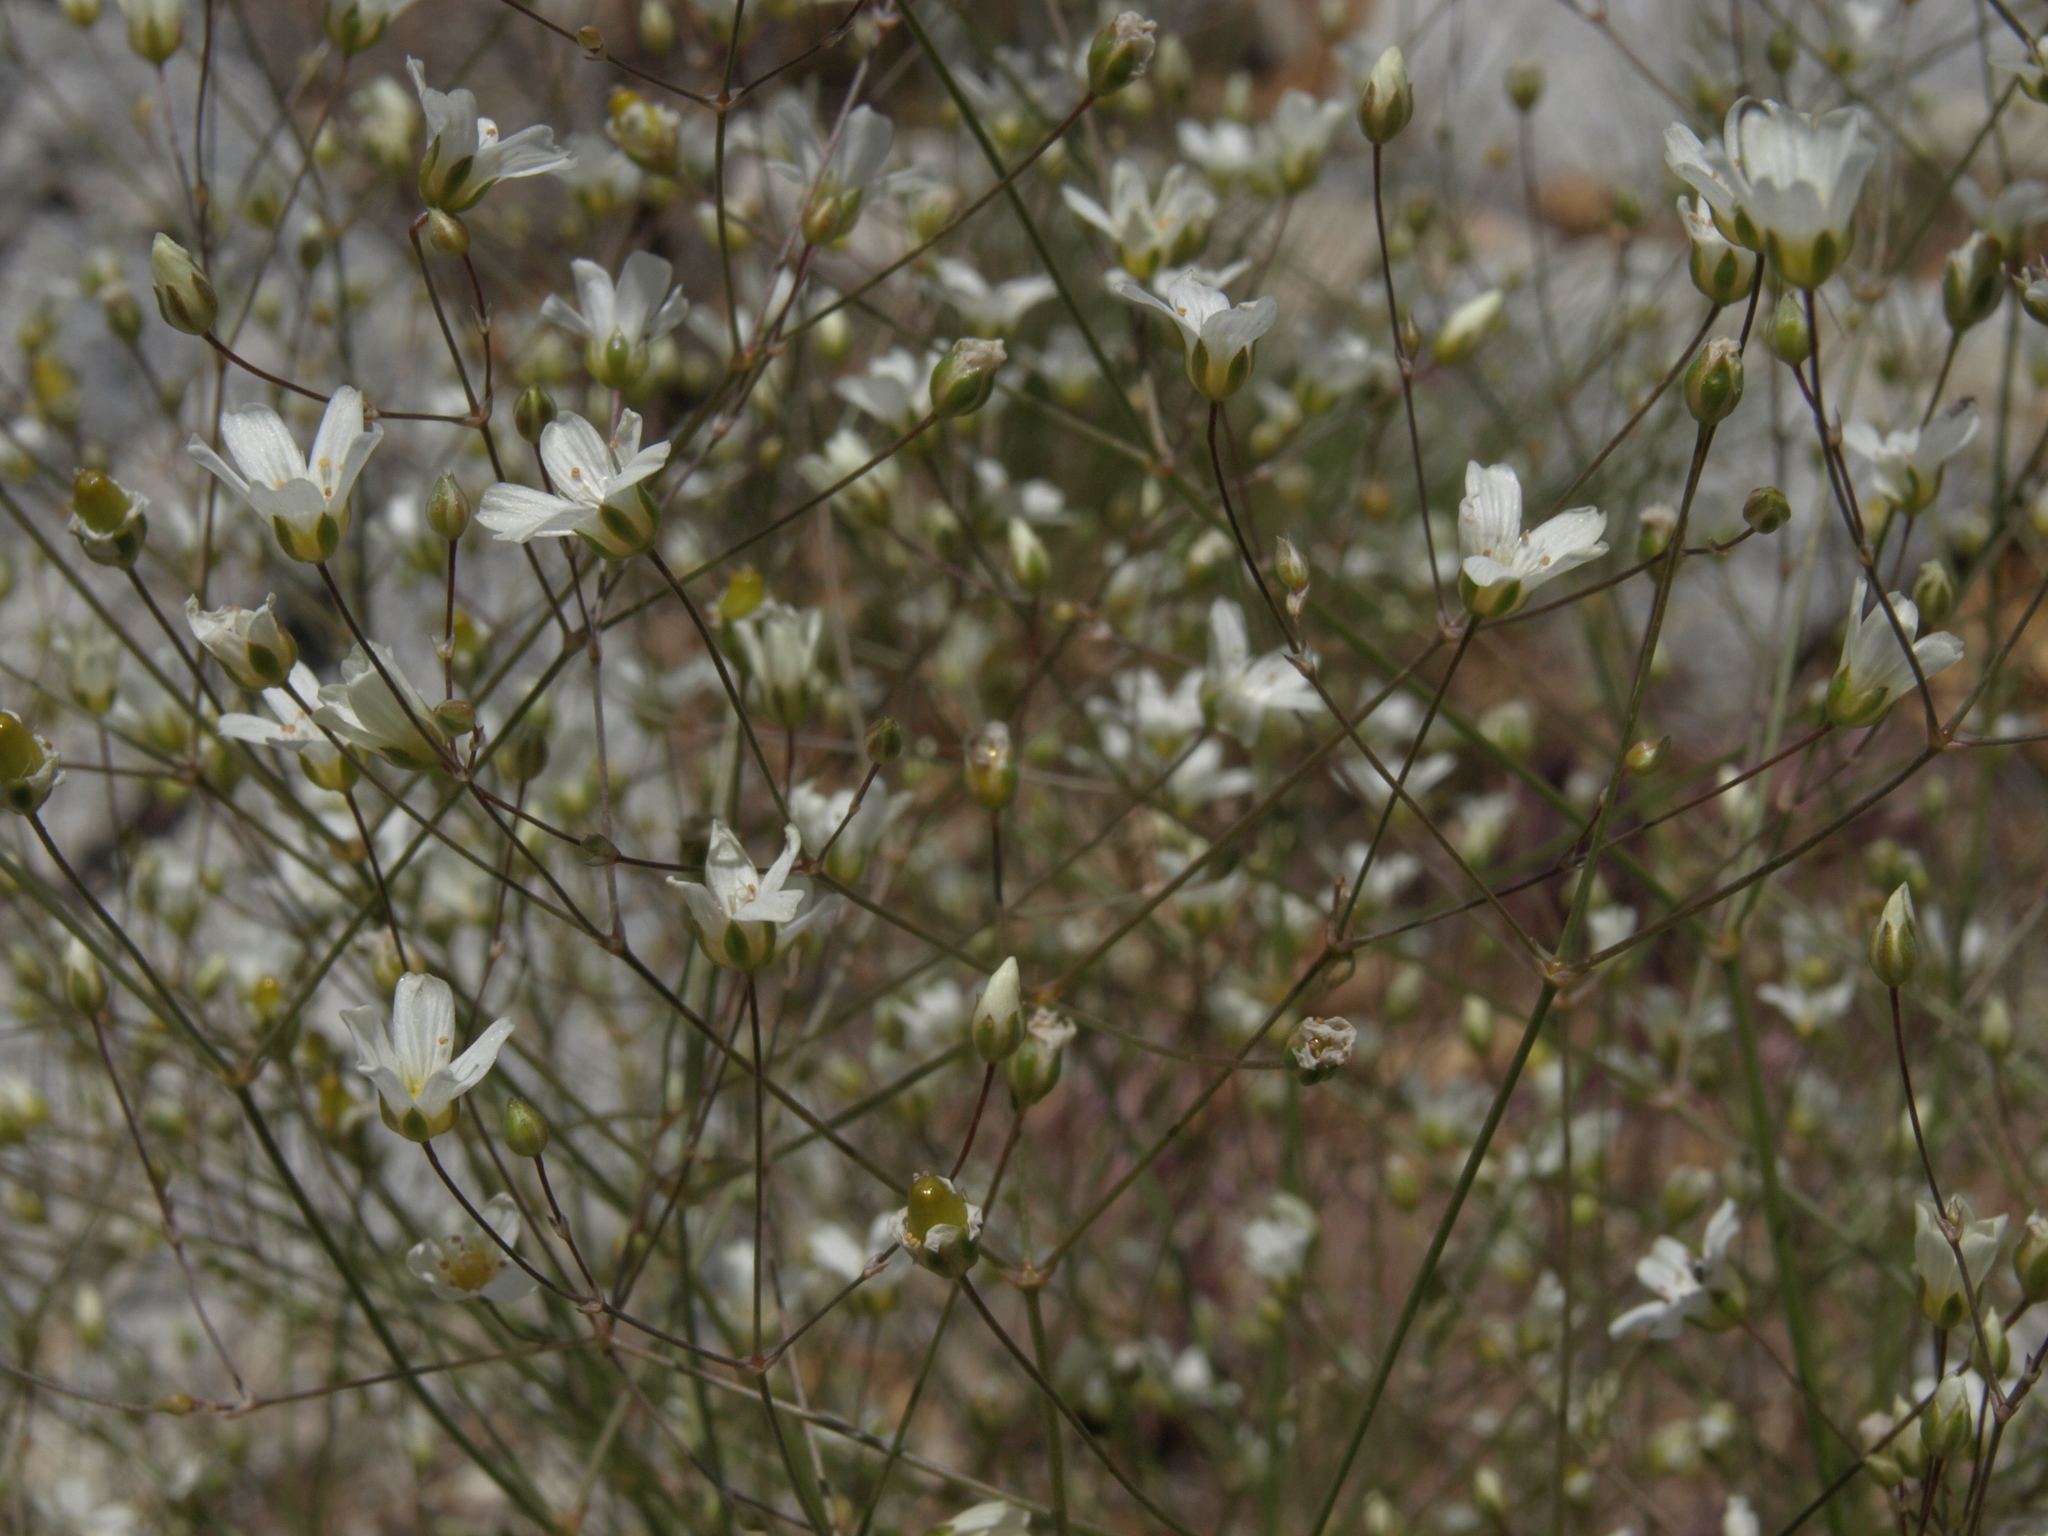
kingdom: Plantae
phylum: Tracheophyta
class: Magnoliopsida
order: Caryophyllales
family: Caryophyllaceae
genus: Eremogone
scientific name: Eremogone ferrisiae
